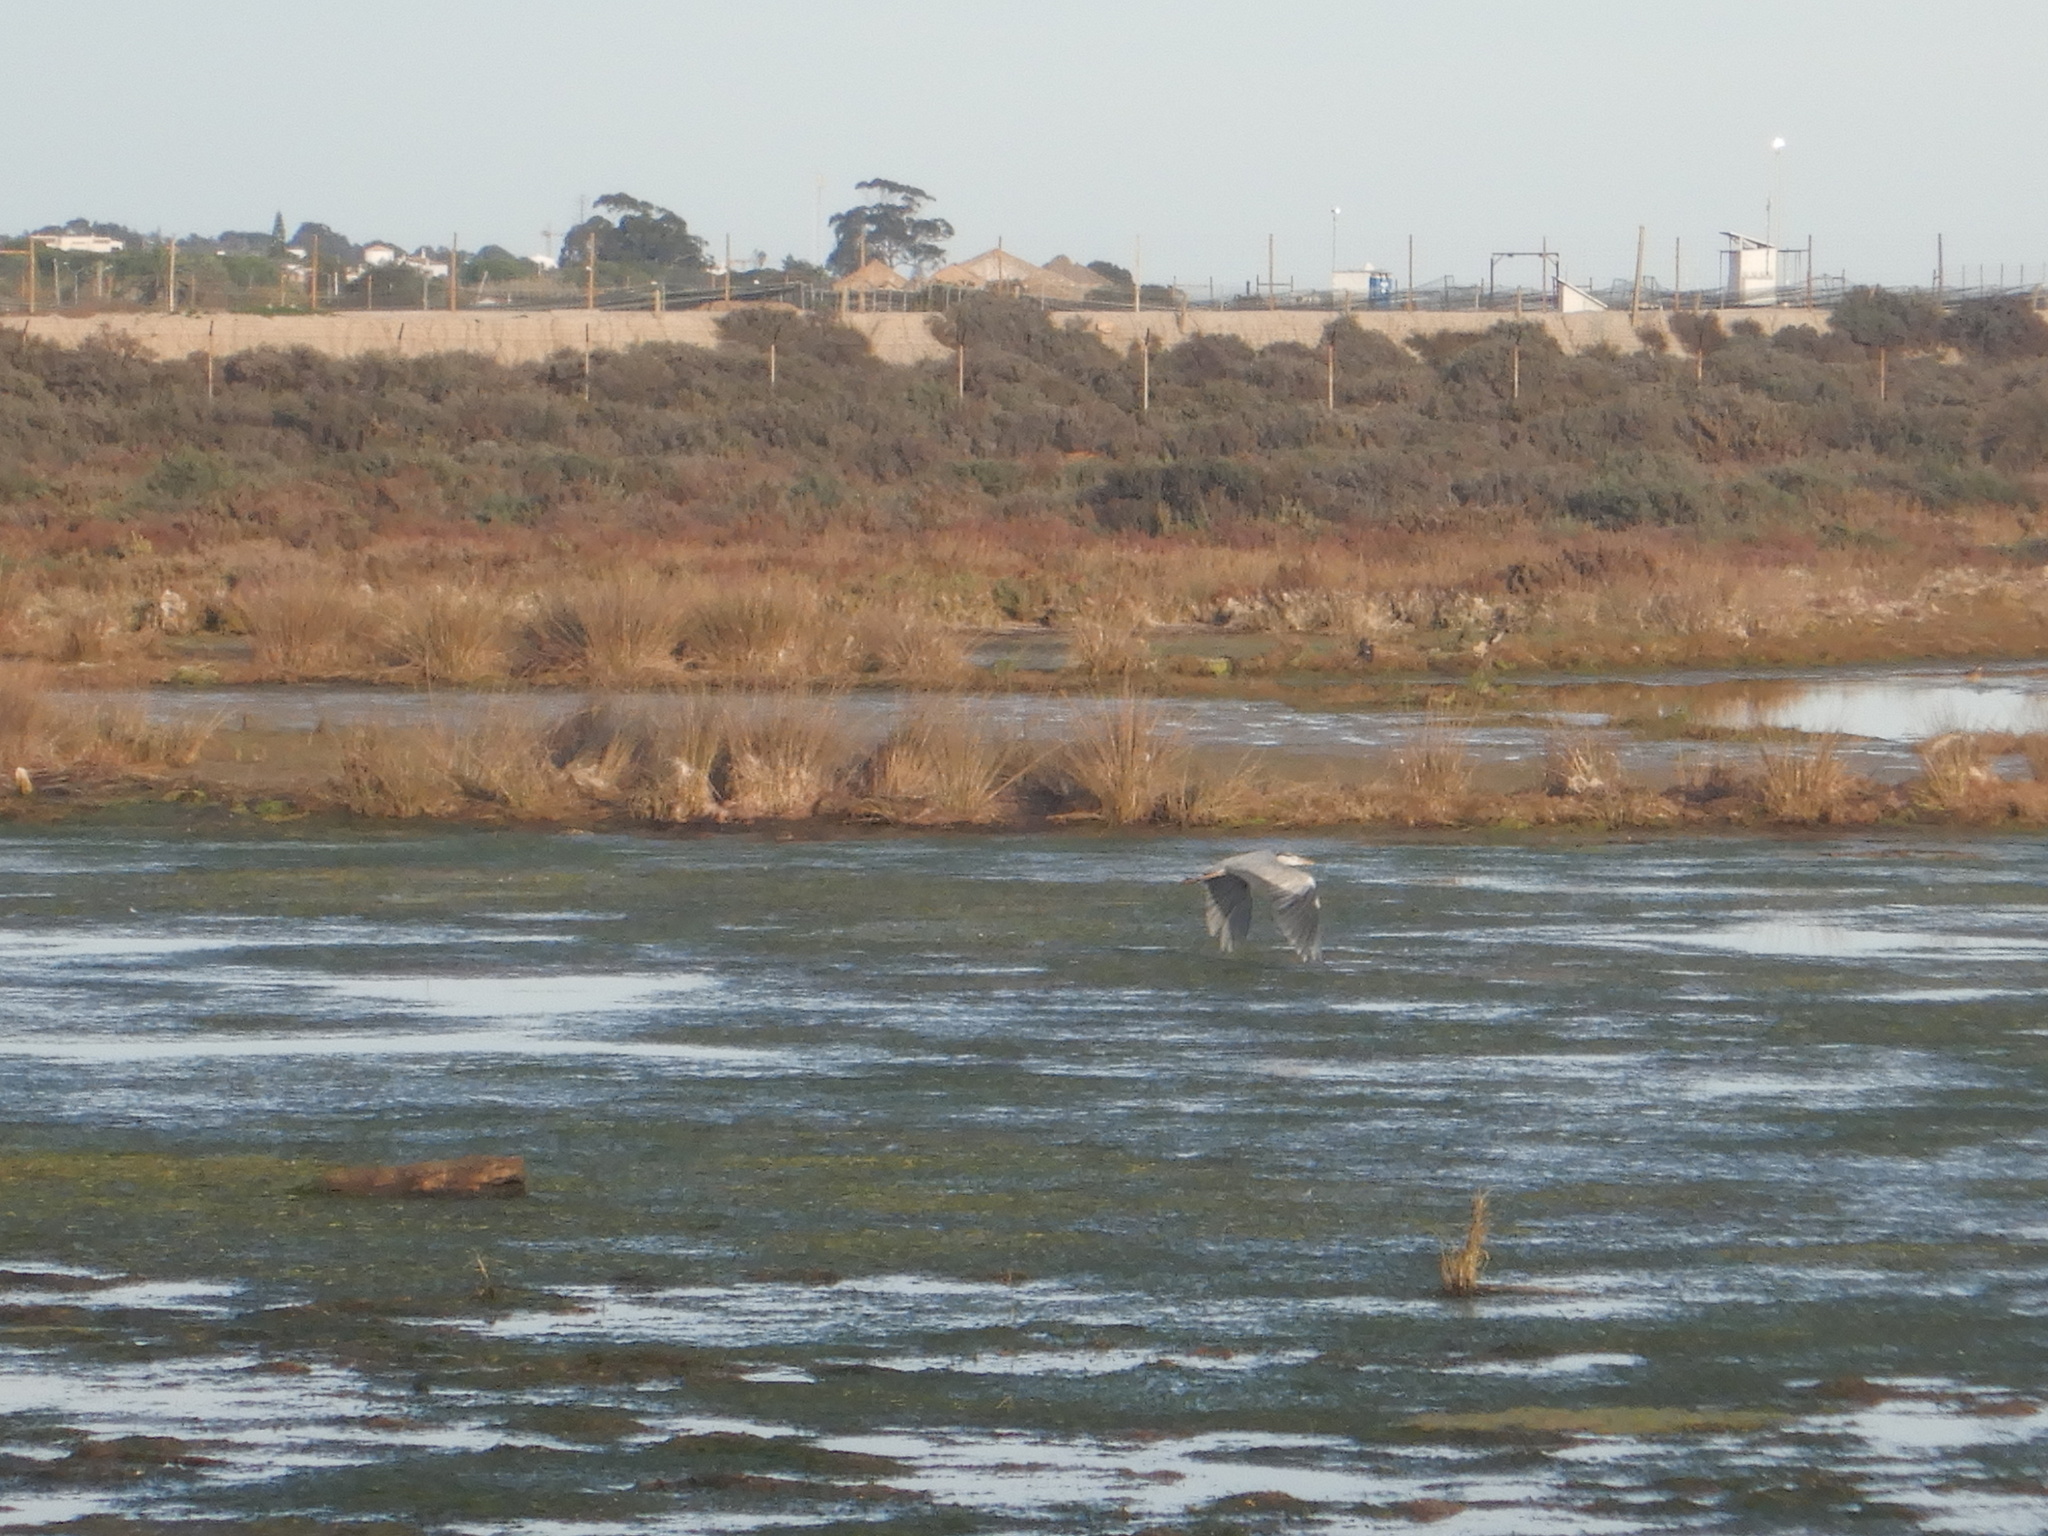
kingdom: Animalia
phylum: Chordata
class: Aves
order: Pelecaniformes
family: Ardeidae
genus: Ardea
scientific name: Ardea cinerea
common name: Grey heron
